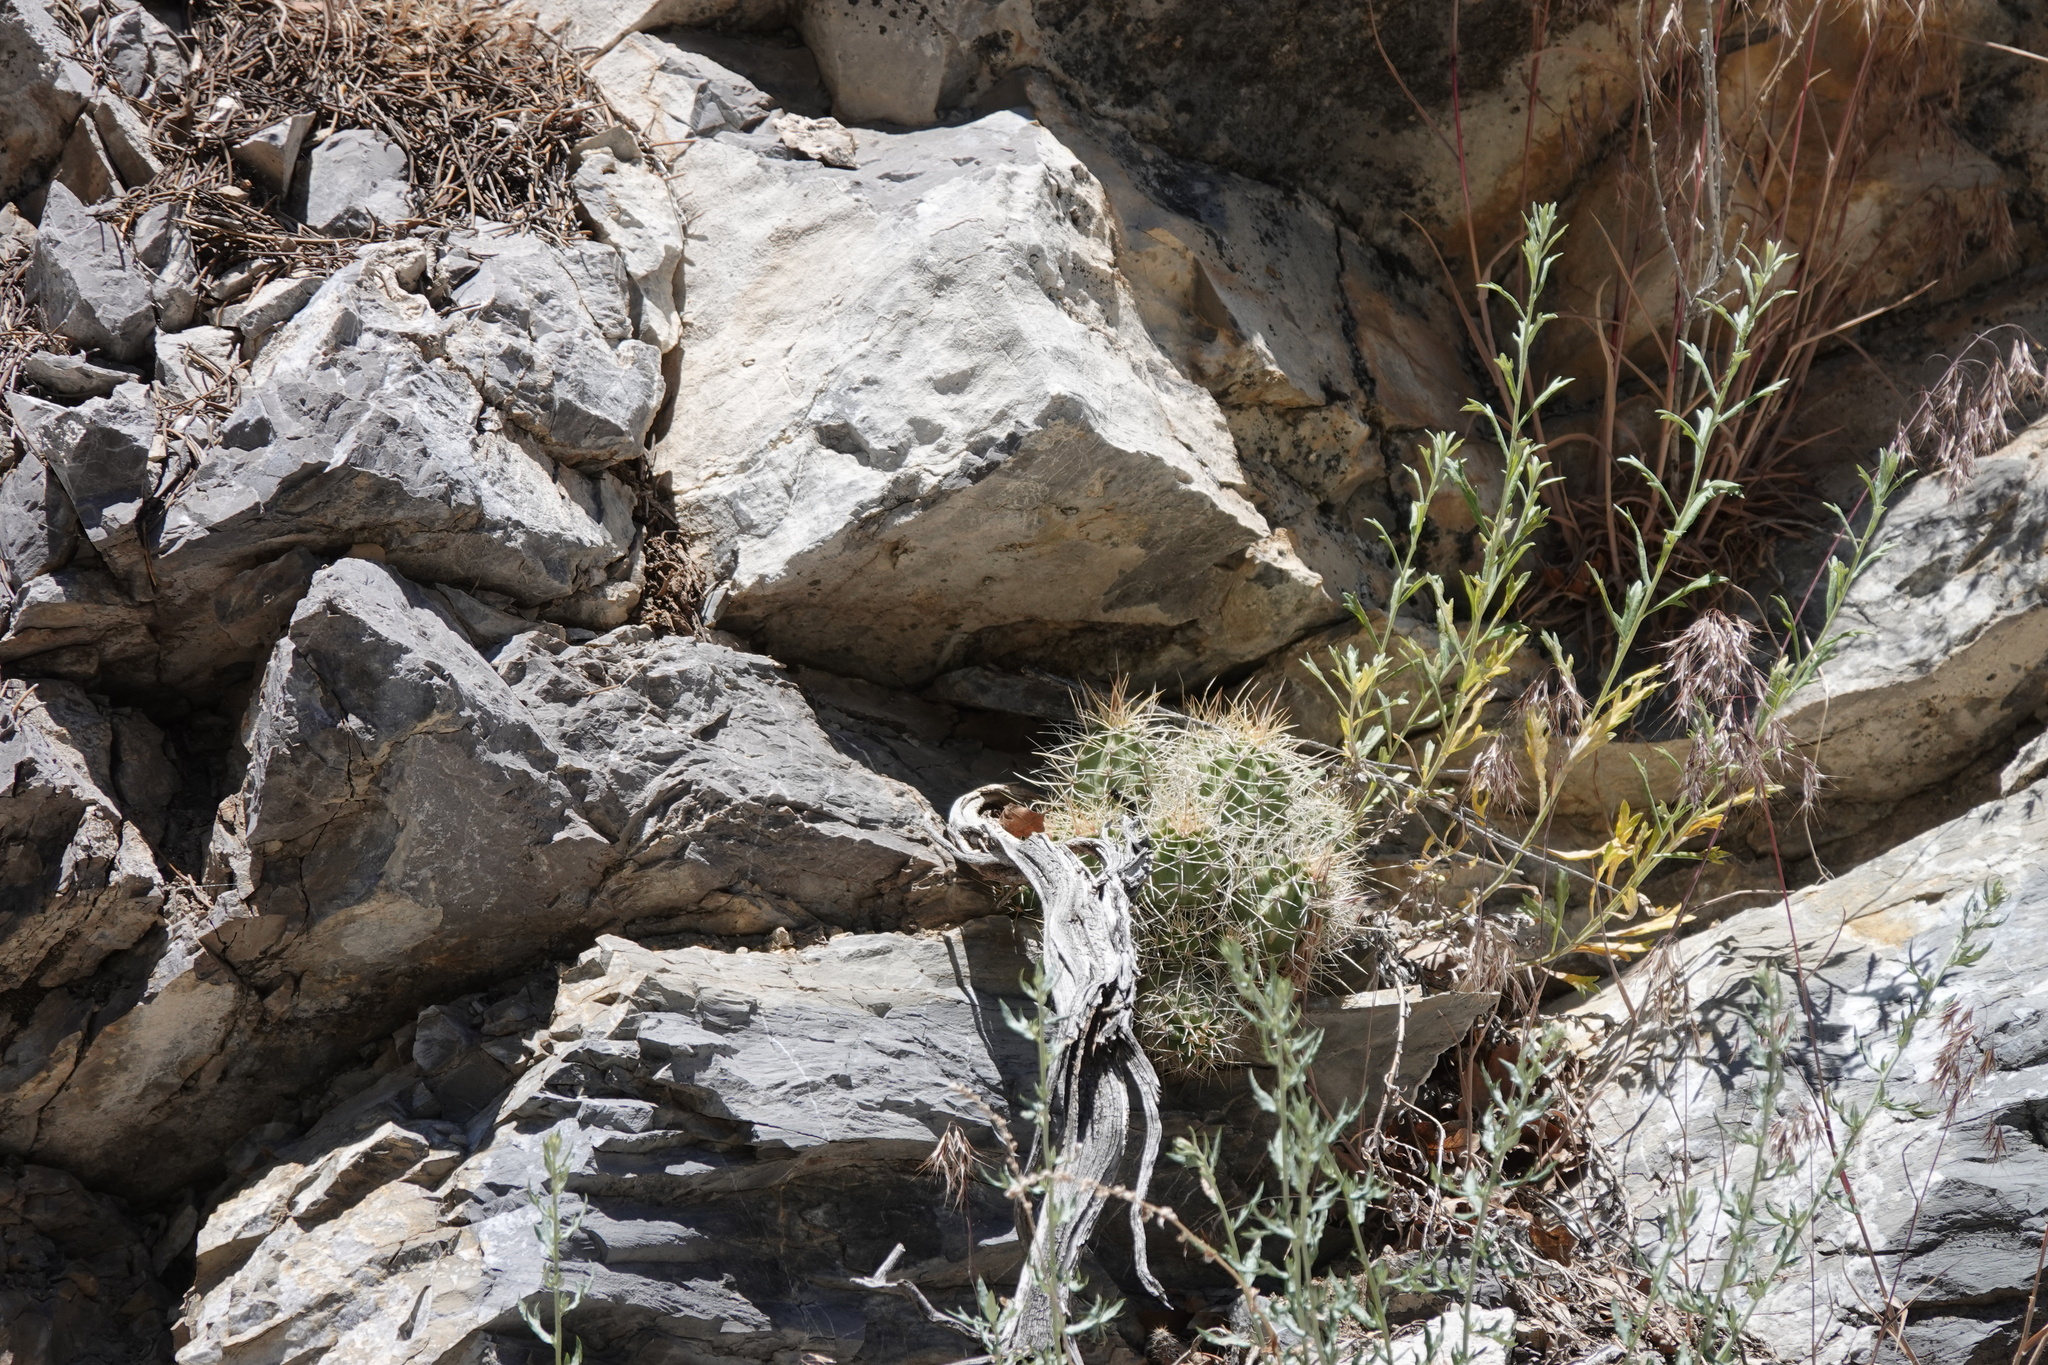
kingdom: Plantae
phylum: Tracheophyta
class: Magnoliopsida
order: Caryophyllales
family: Cactaceae
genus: Echinocereus
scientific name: Echinocereus triglochidiatus
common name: Claretcup hedgehog
